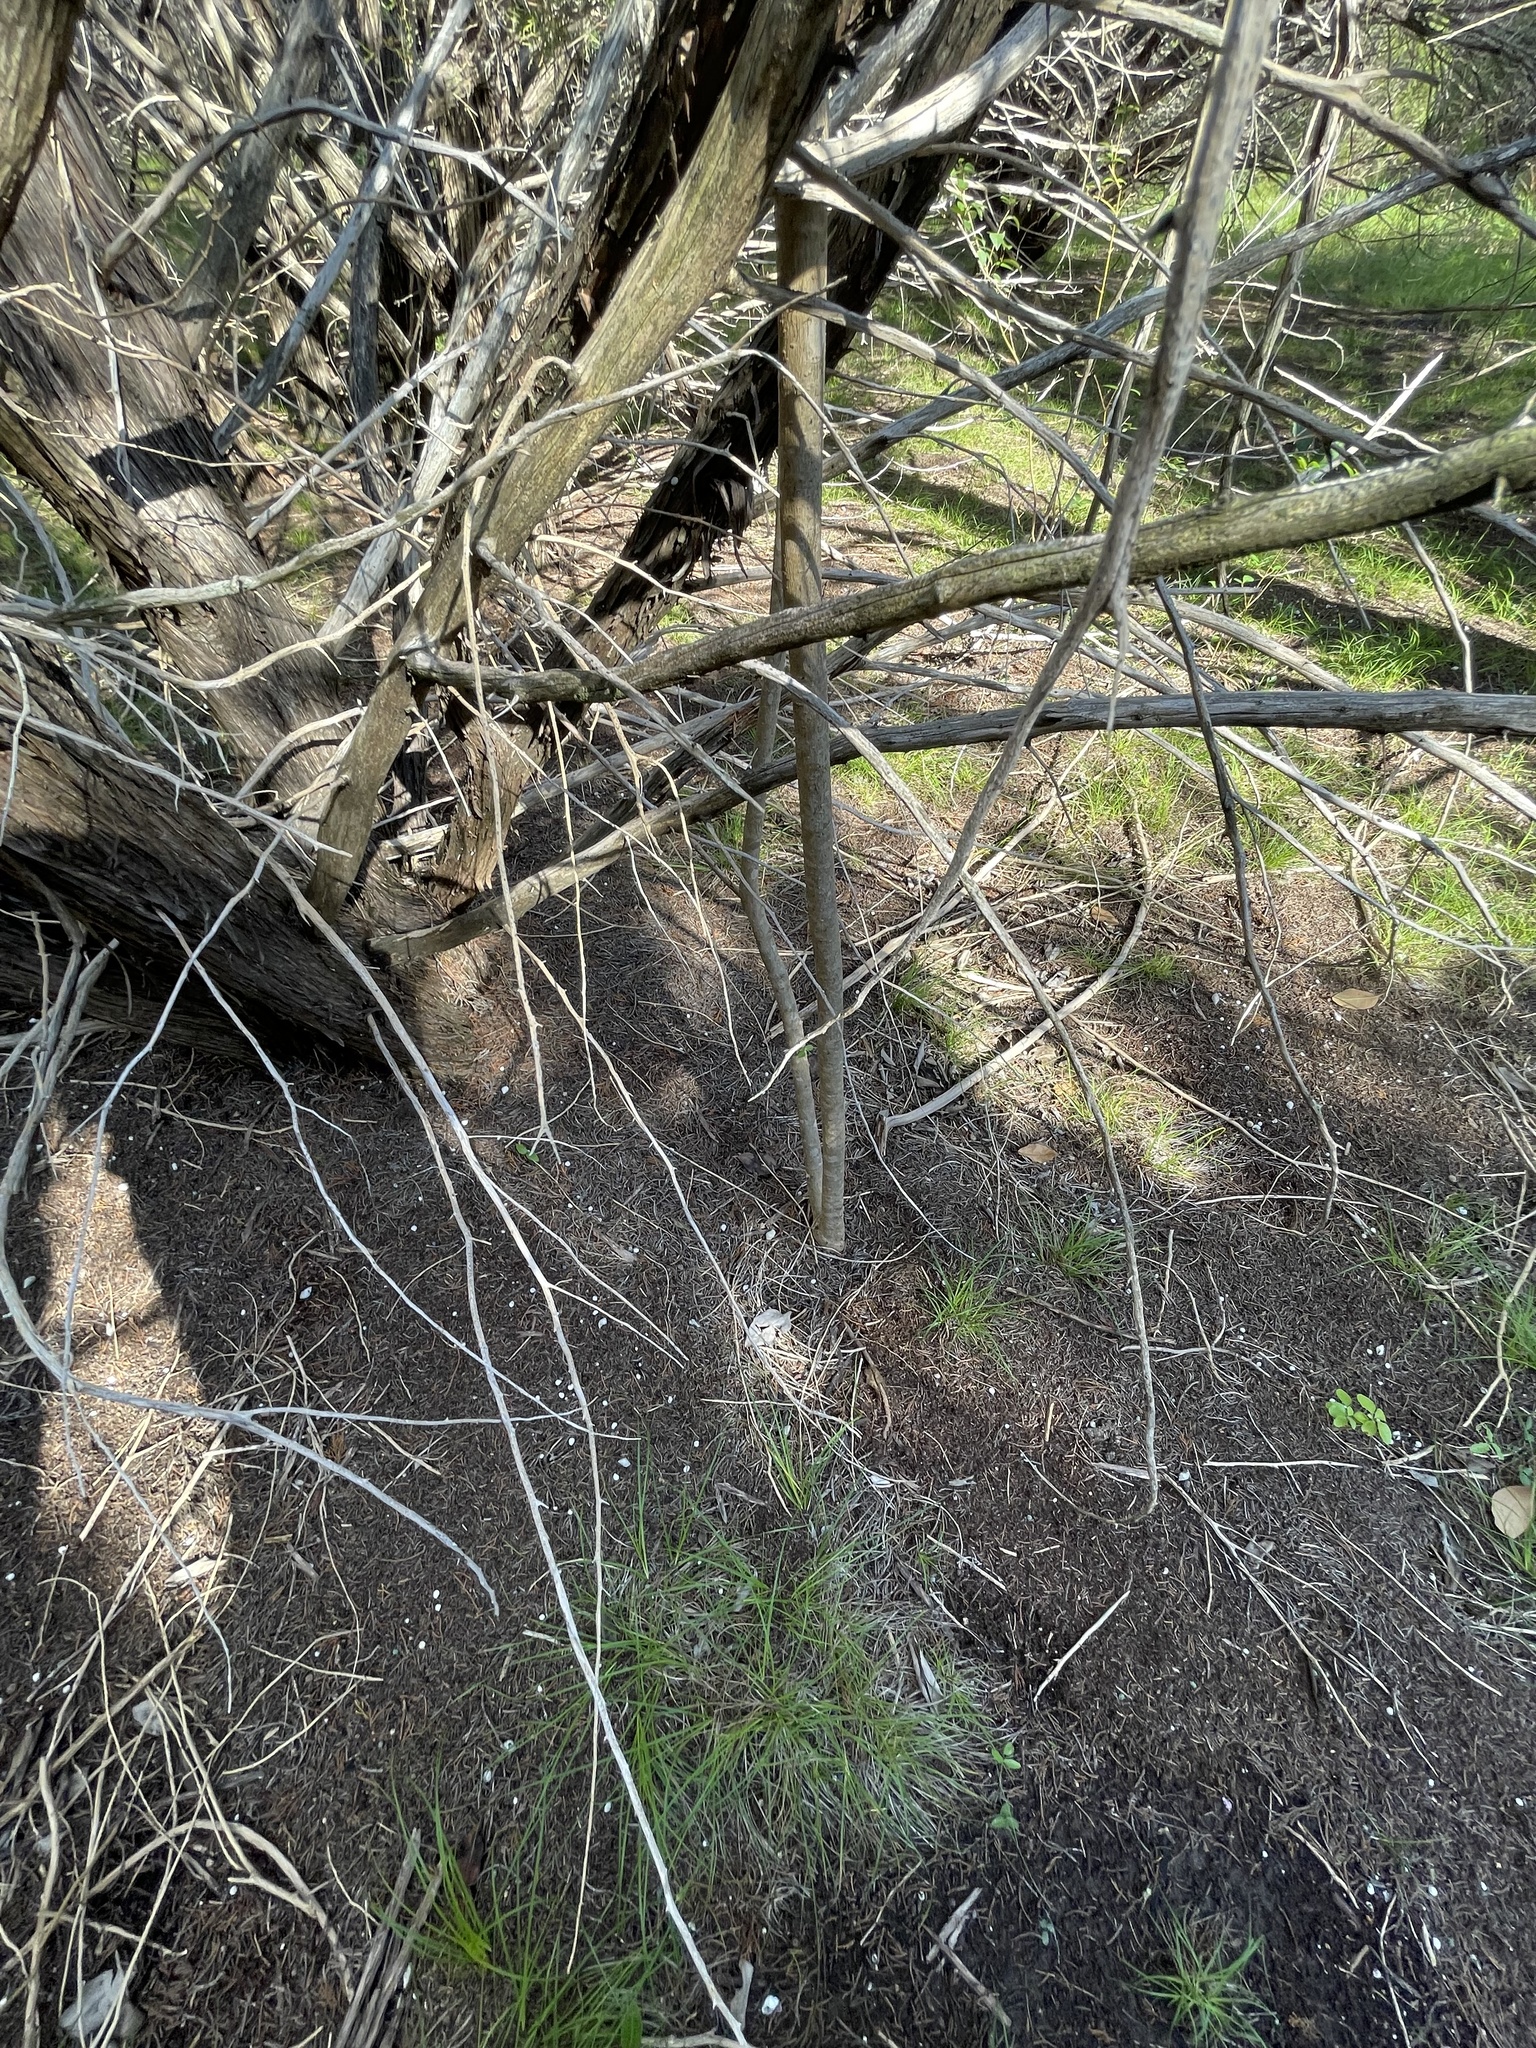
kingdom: Plantae
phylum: Tracheophyta
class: Magnoliopsida
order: Lamiales
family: Oleaceae
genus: Ligustrum
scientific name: Ligustrum lucidum
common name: Glossy privet
